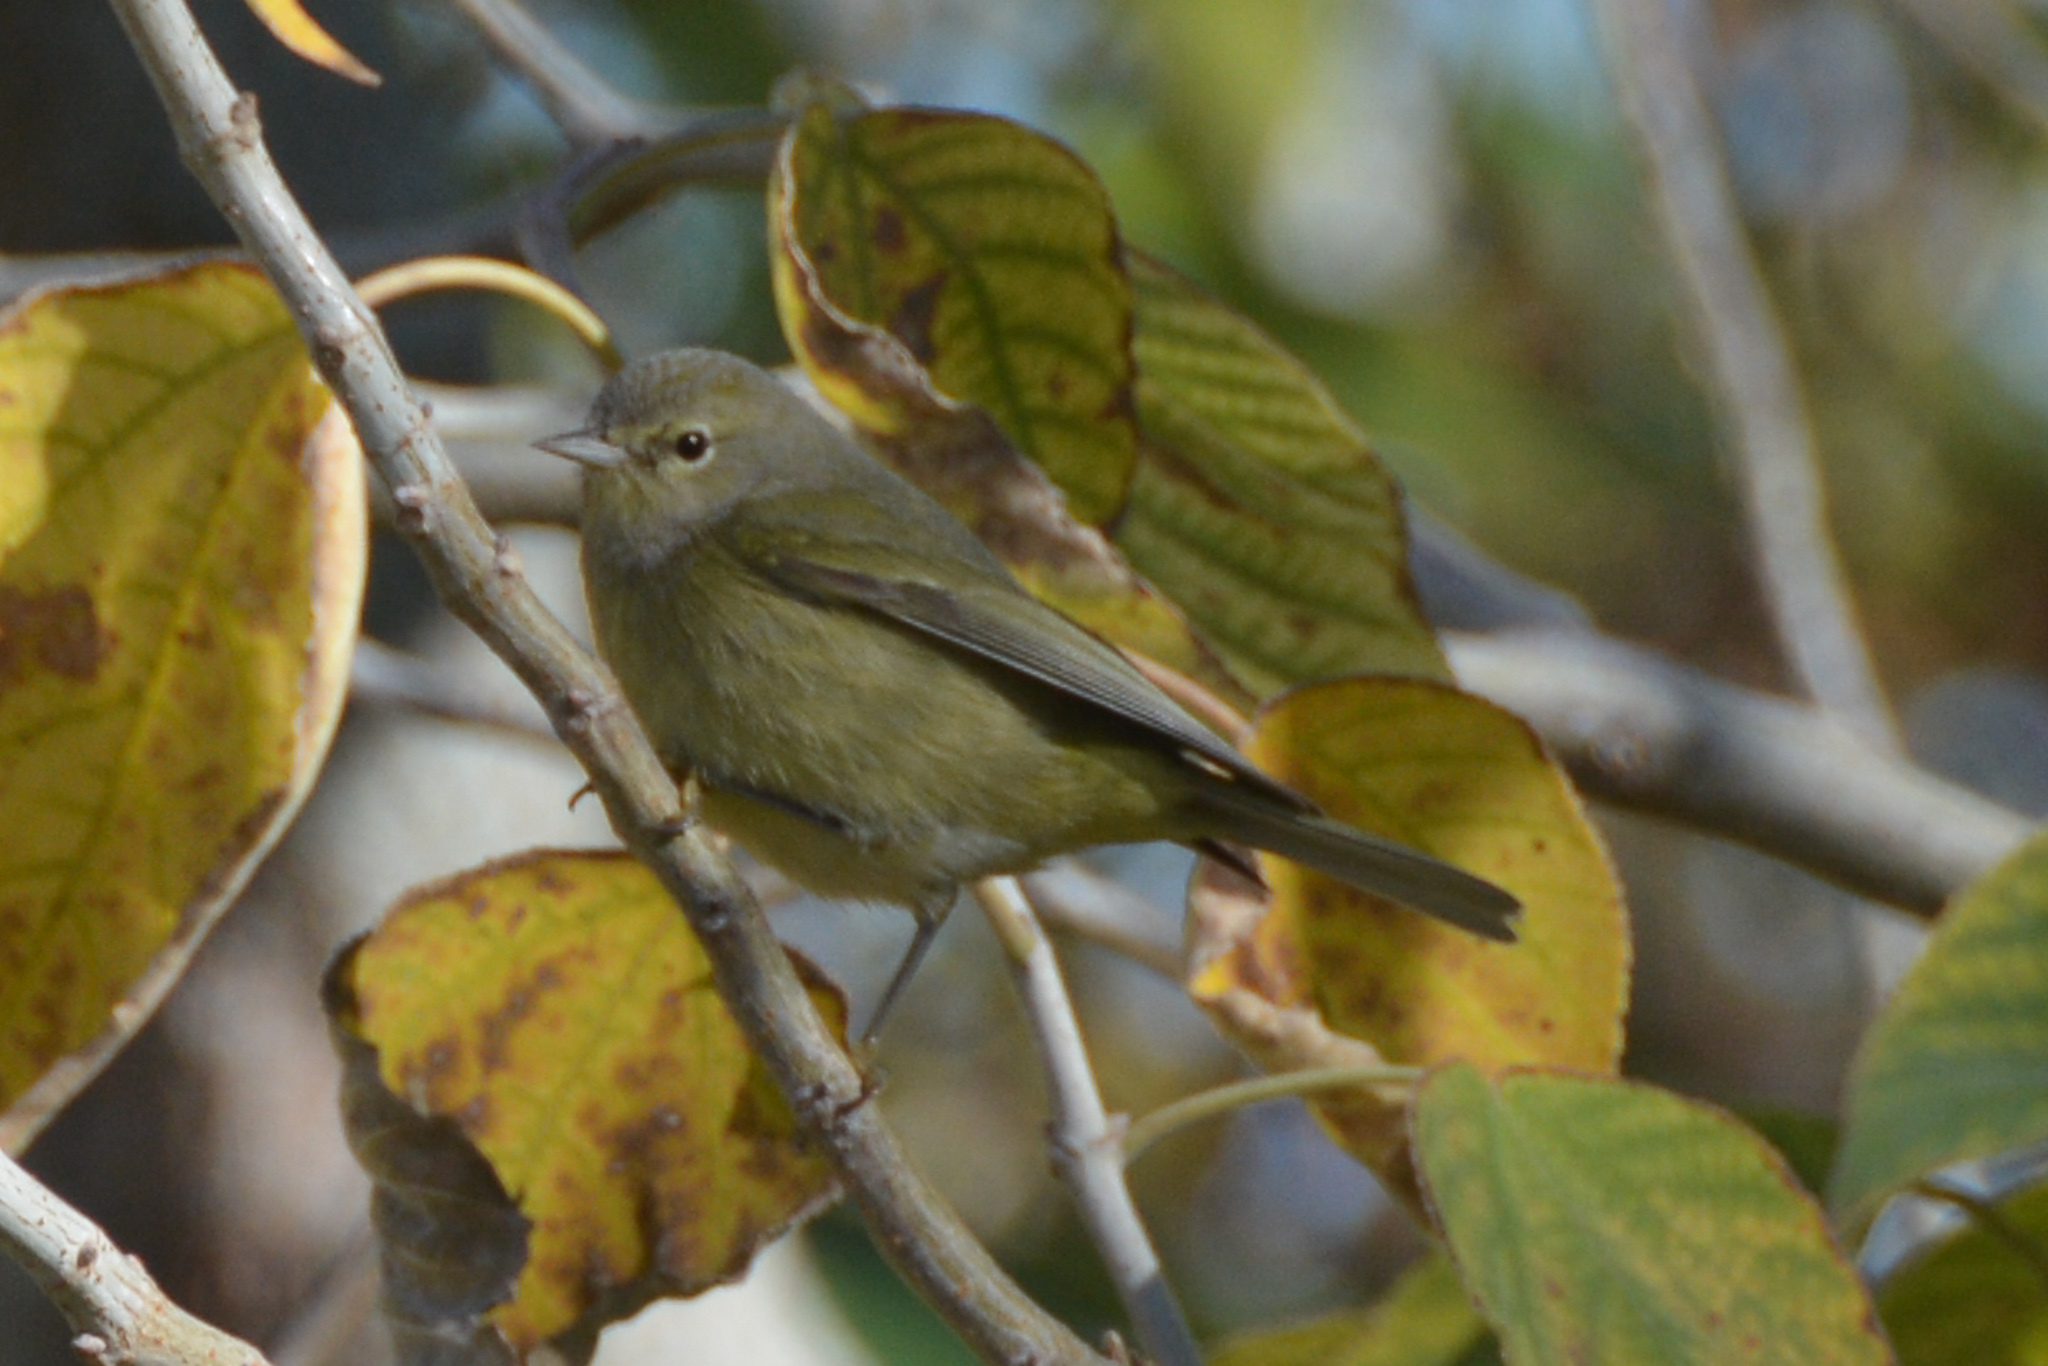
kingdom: Animalia
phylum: Chordata
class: Aves
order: Passeriformes
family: Parulidae
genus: Leiothlypis
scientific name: Leiothlypis celata
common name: Orange-crowned warbler
